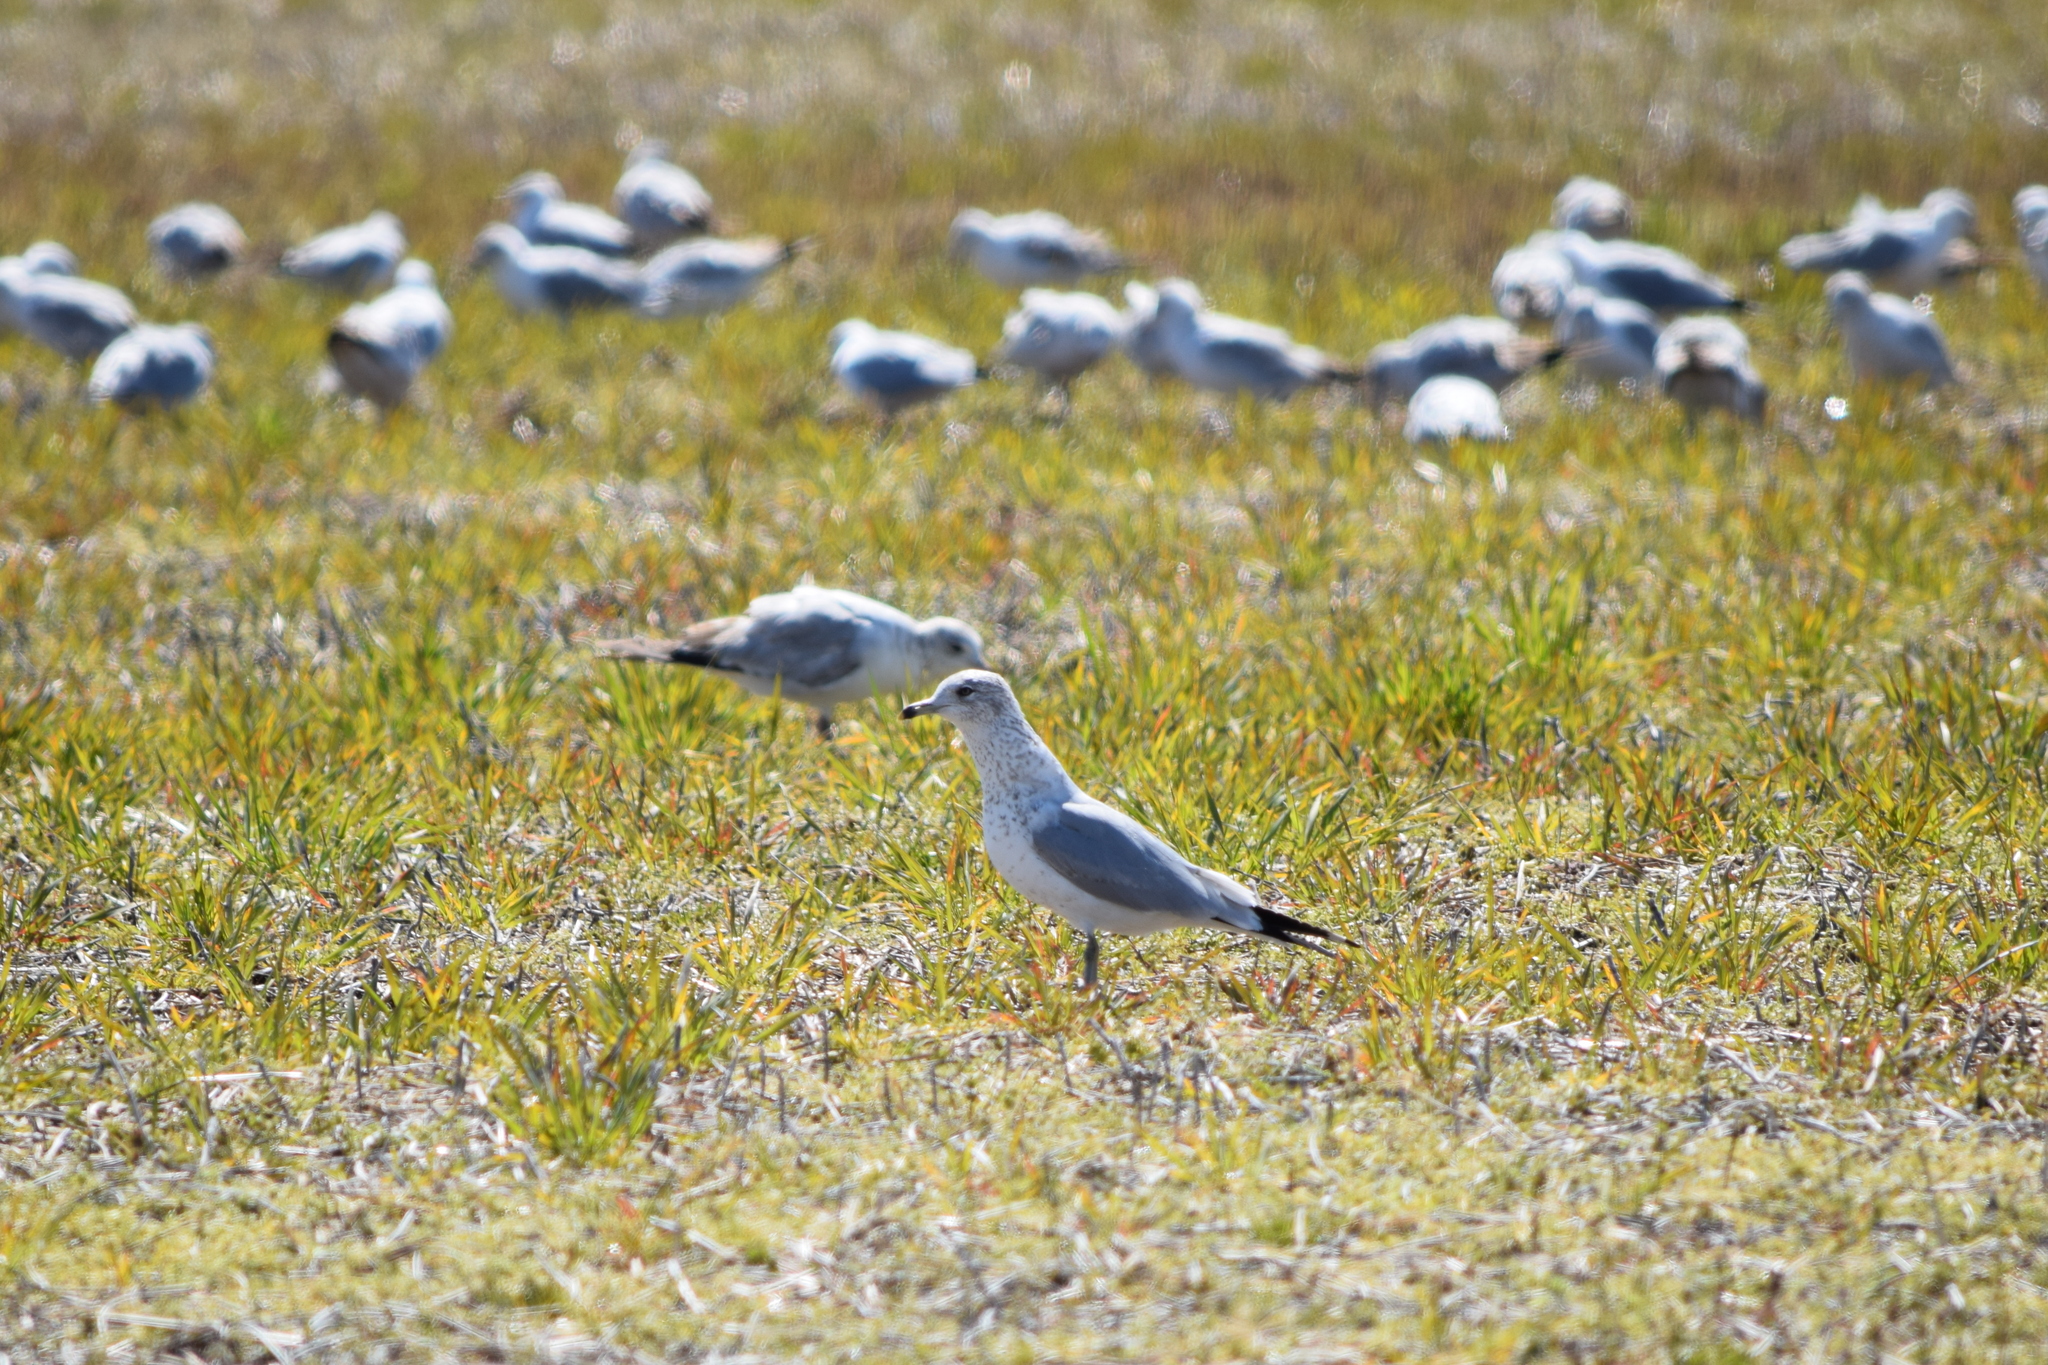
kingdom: Animalia
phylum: Chordata
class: Aves
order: Charadriiformes
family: Laridae
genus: Larus
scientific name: Larus delawarensis
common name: Ring-billed gull
